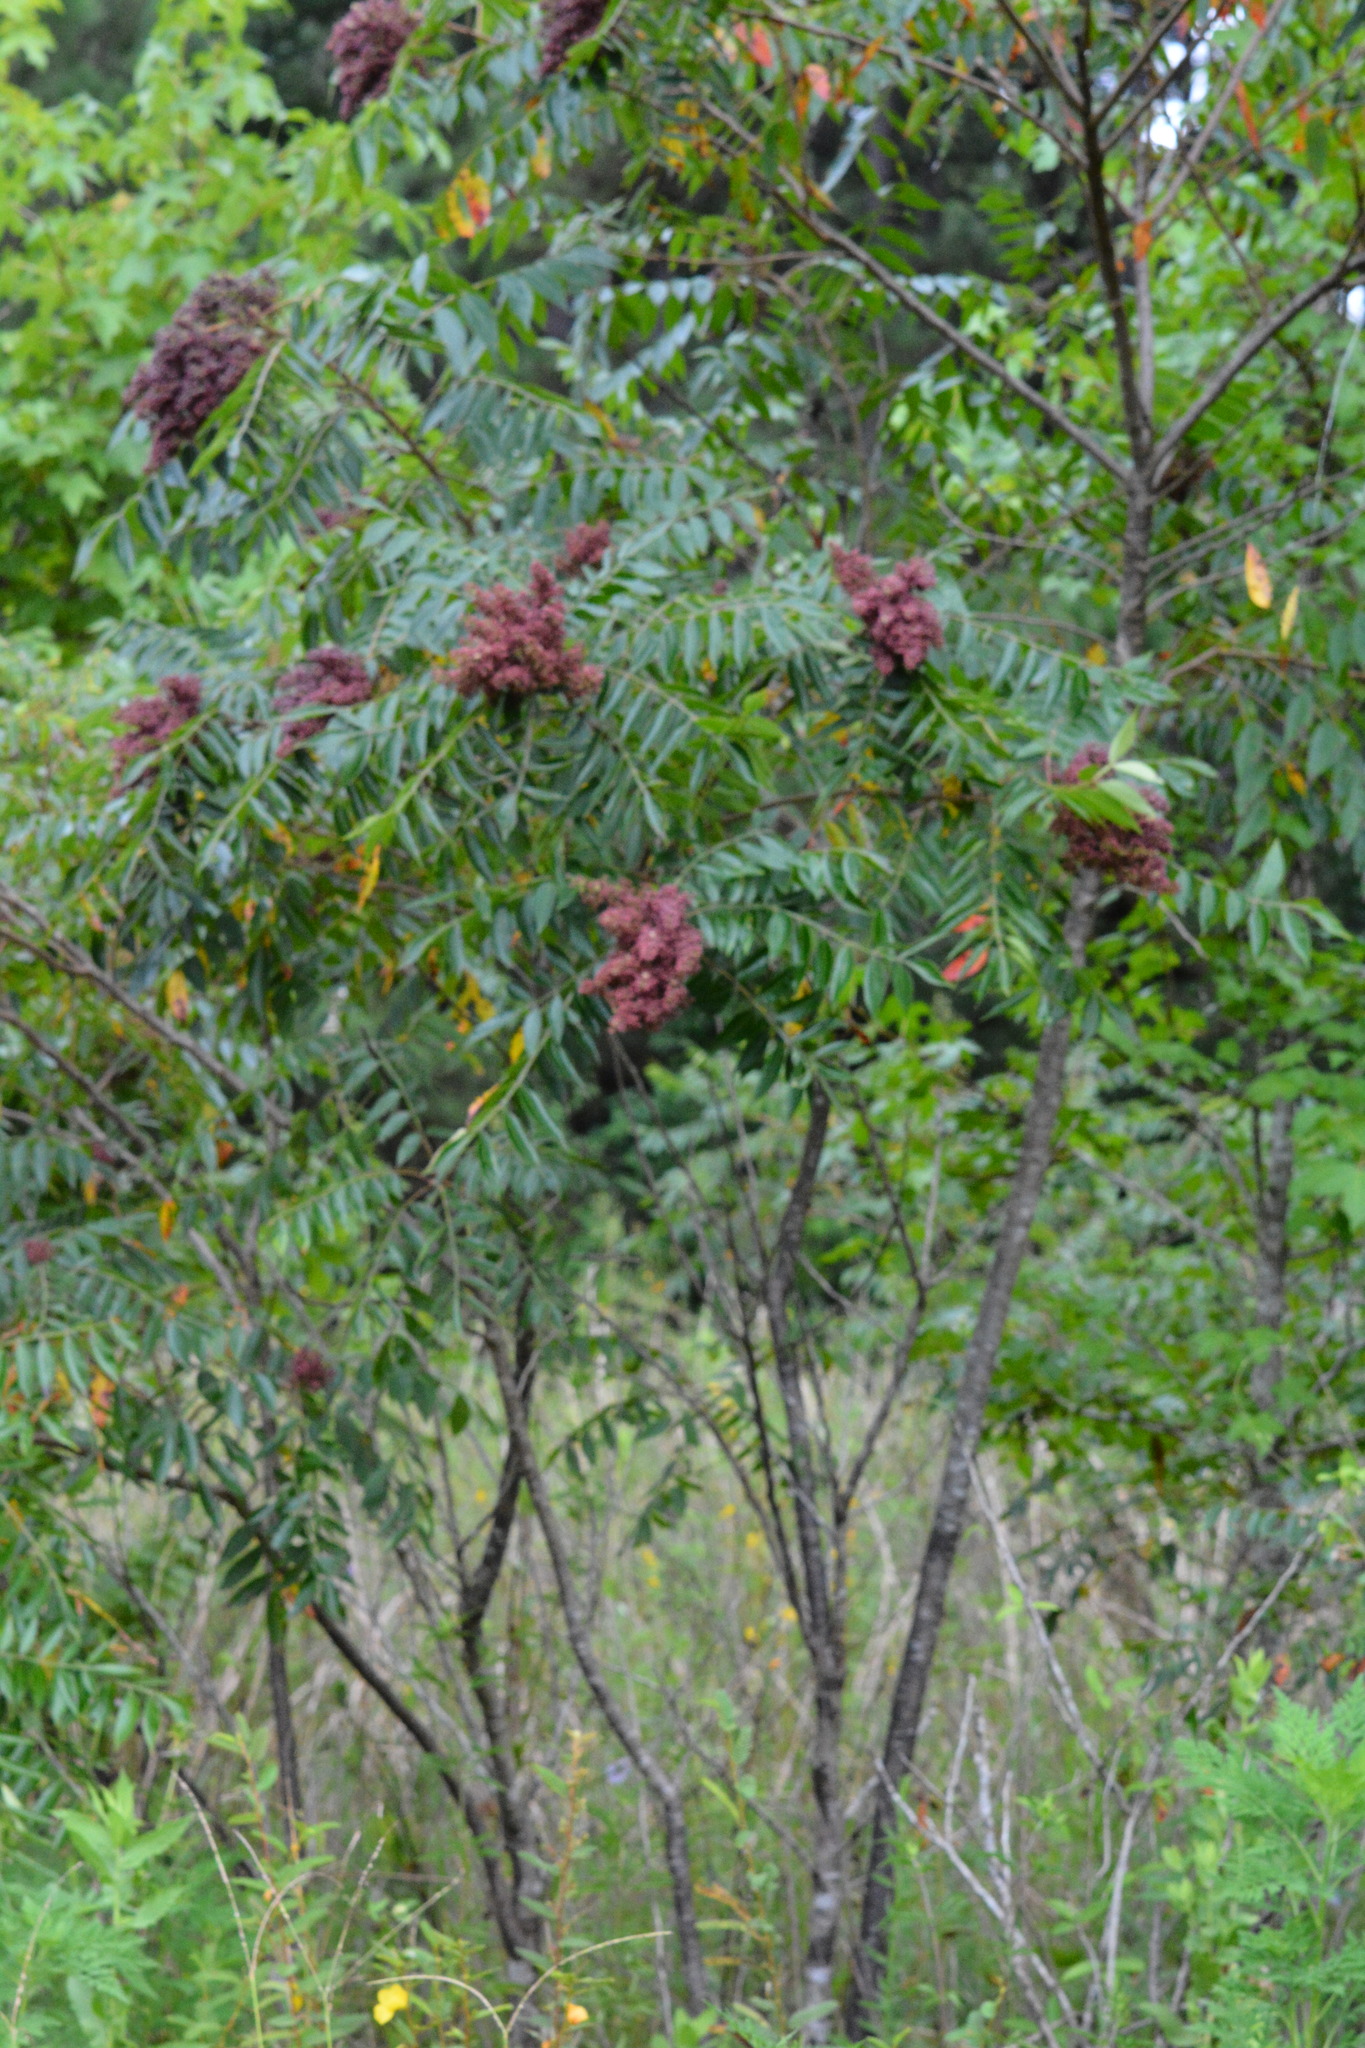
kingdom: Plantae
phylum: Tracheophyta
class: Magnoliopsida
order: Sapindales
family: Anacardiaceae
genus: Rhus
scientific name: Rhus copallina
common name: Shining sumac
